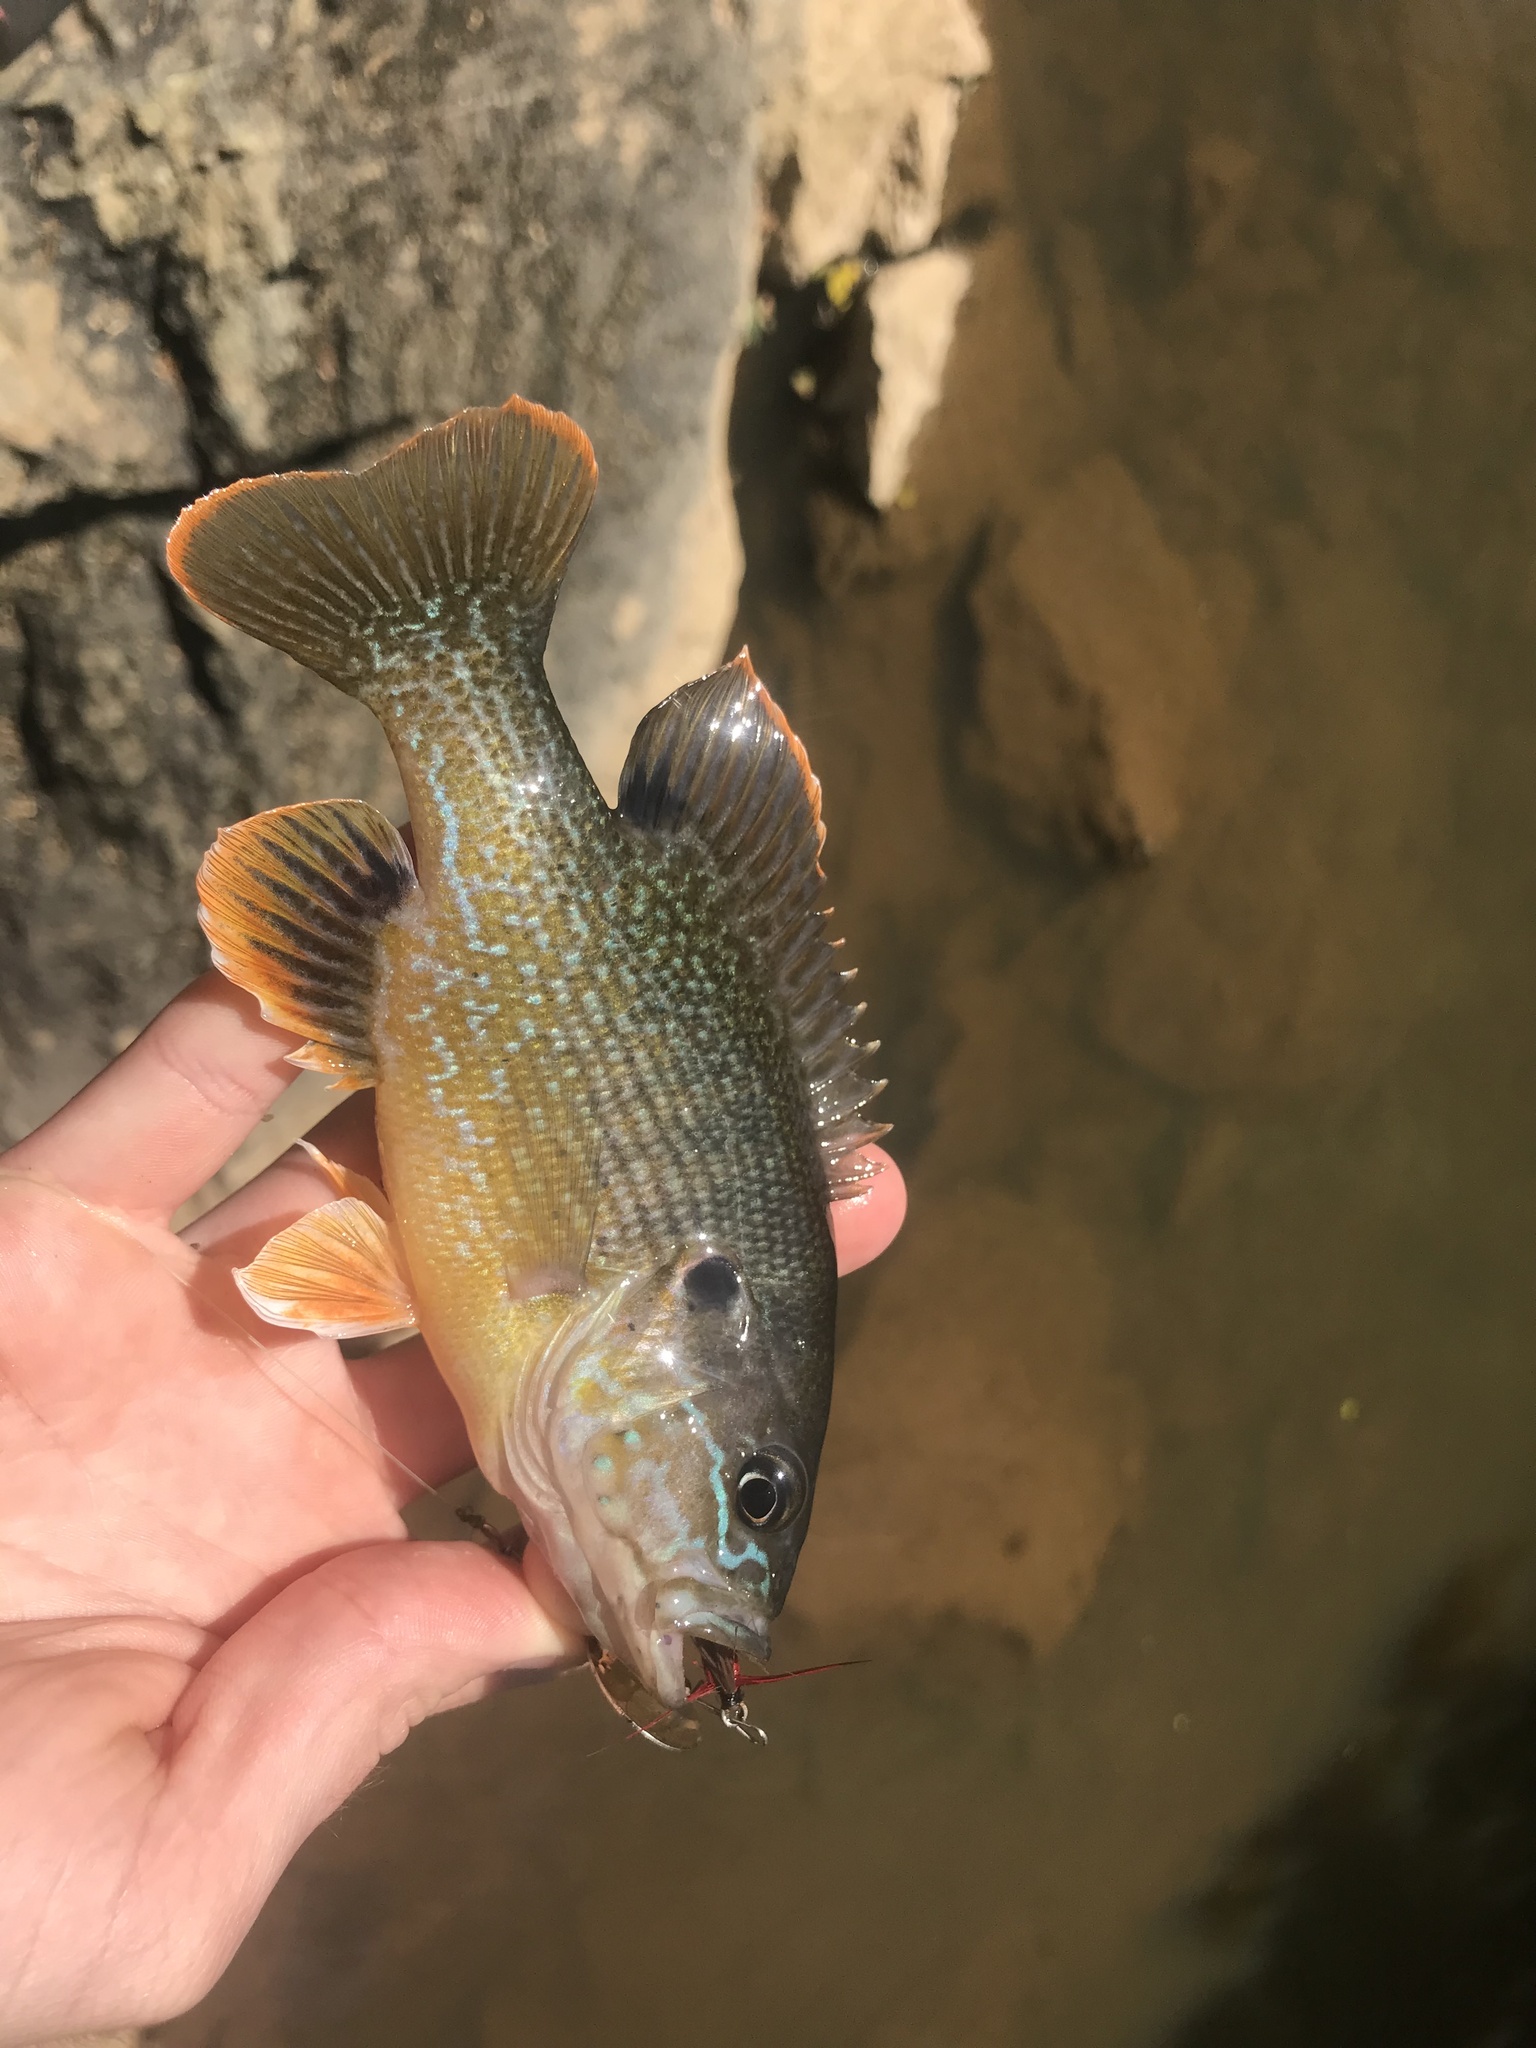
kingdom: Animalia
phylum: Chordata
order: Perciformes
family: Centrarchidae
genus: Lepomis
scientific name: Lepomis cyanellus
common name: Green sunfish
